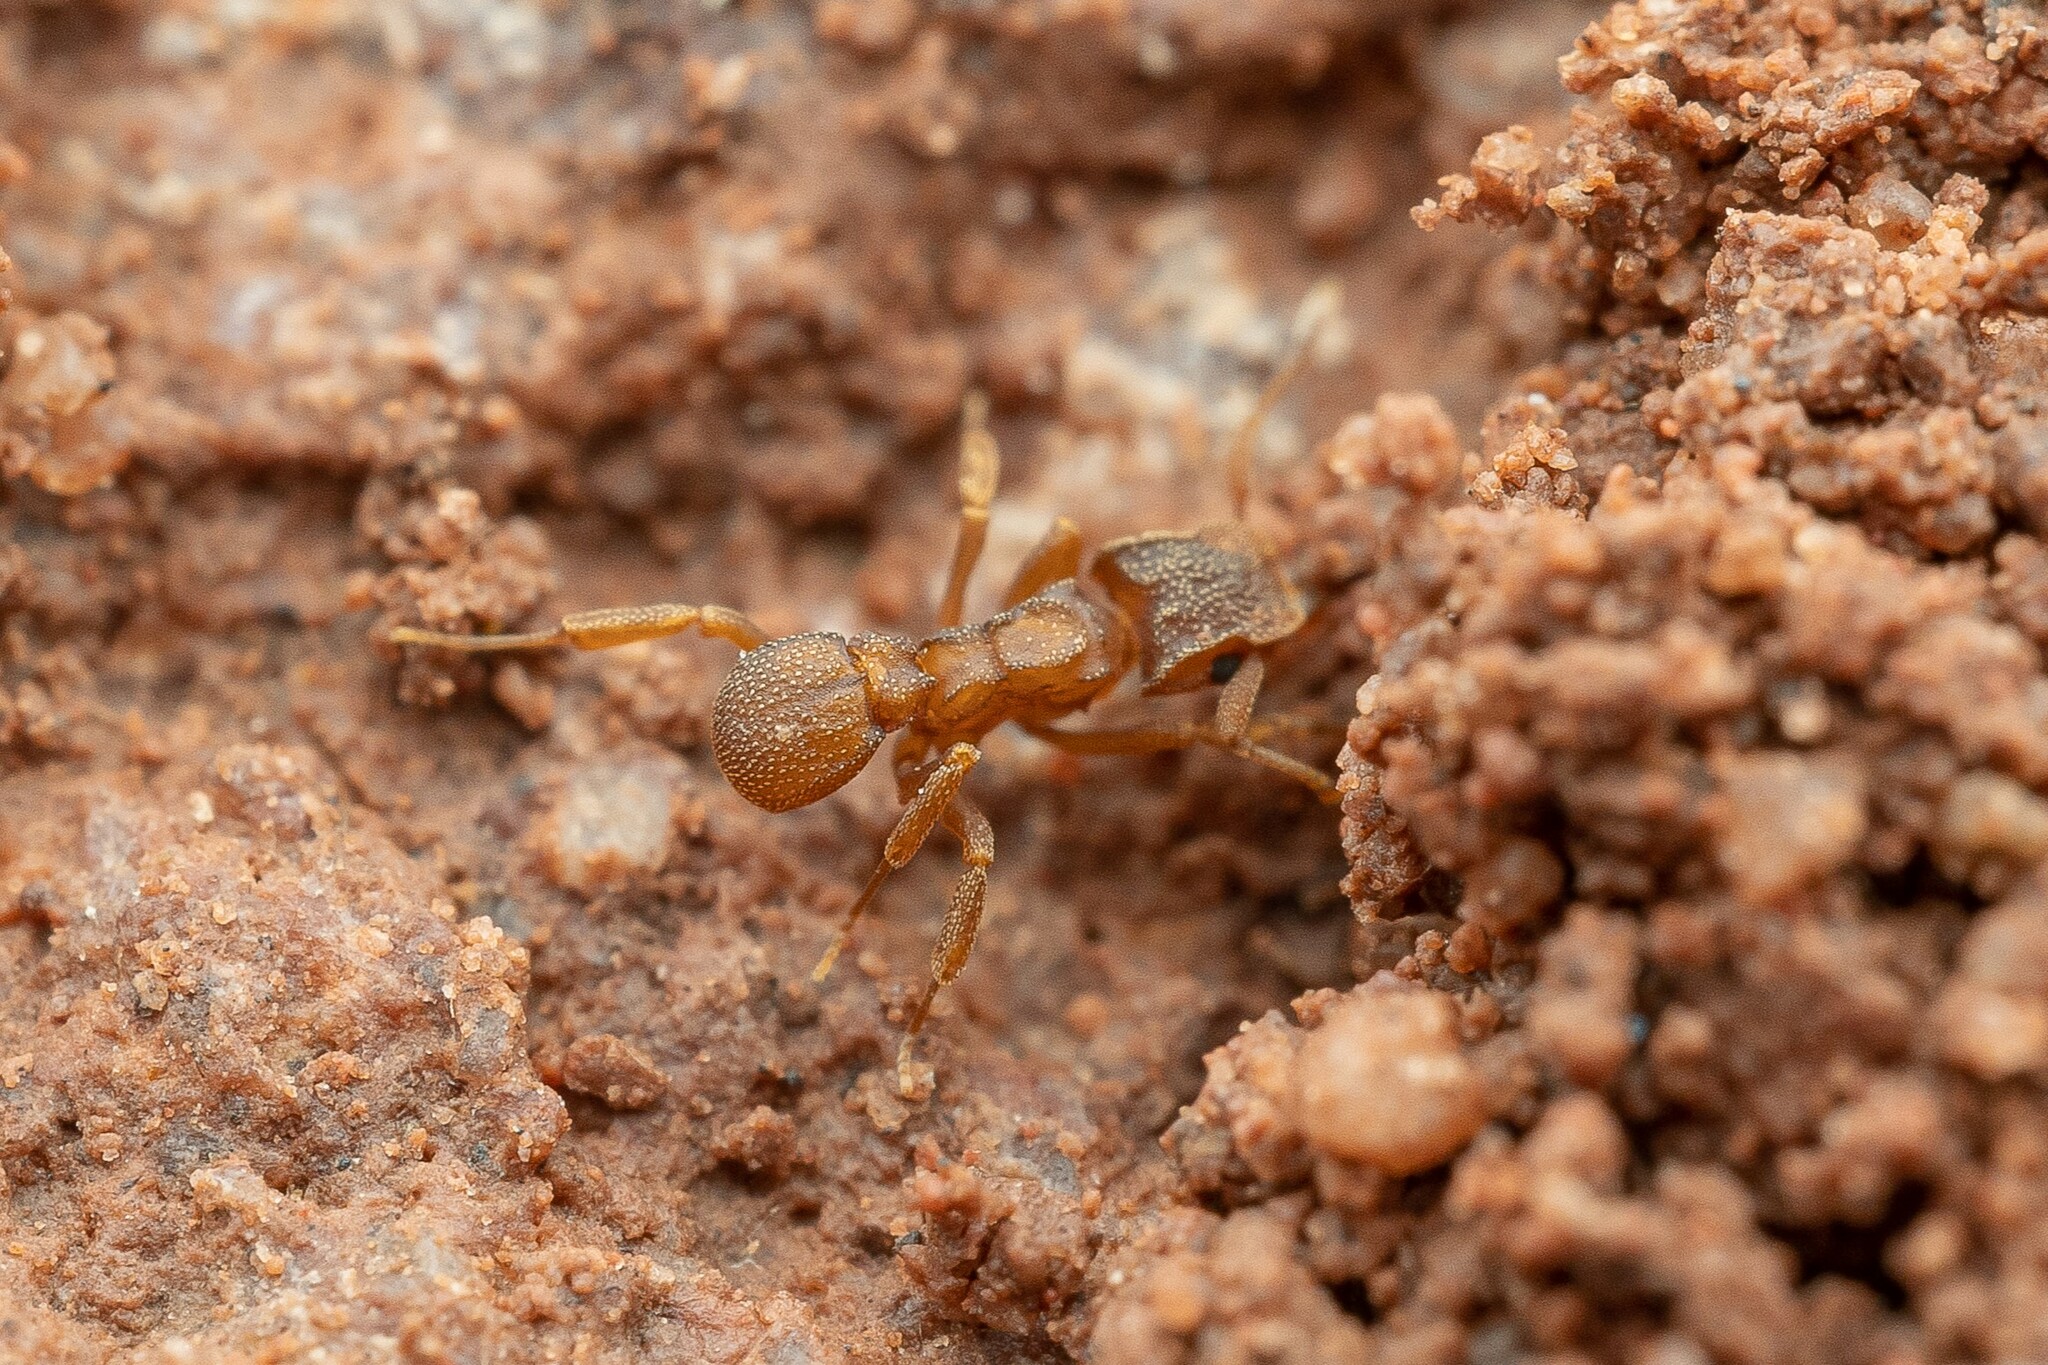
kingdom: Animalia
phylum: Arthropoda
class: Insecta
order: Hymenoptera
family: Formicidae
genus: Cyphomyrmex
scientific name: Cyphomyrmex wheeleri
